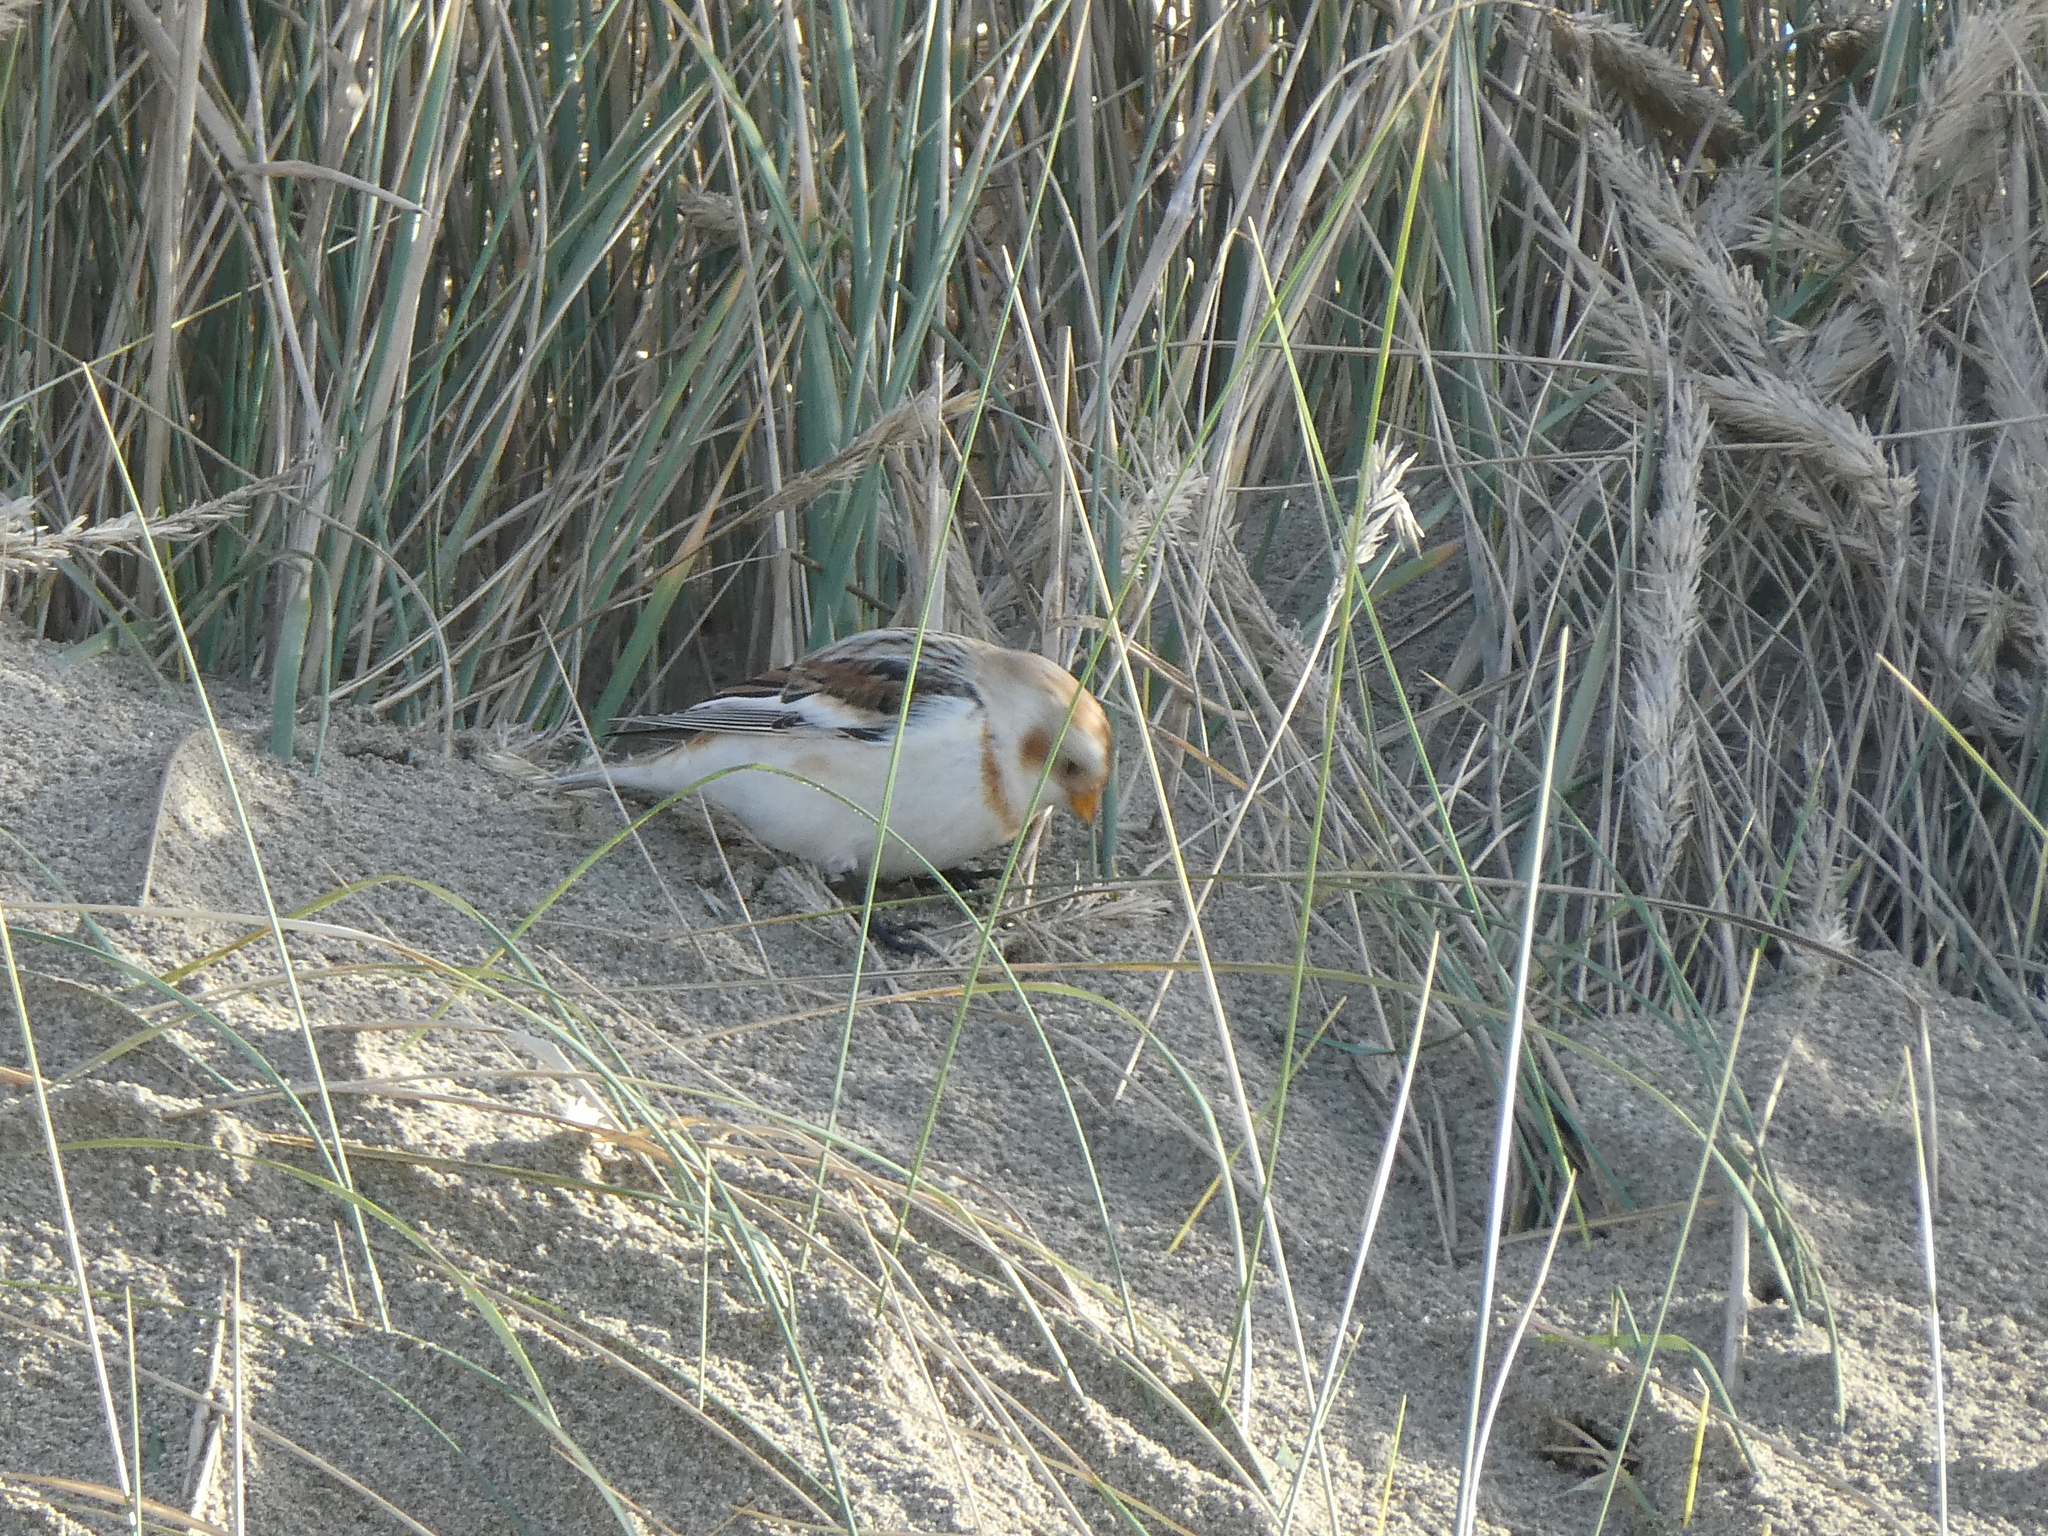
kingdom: Animalia
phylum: Chordata
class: Aves
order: Passeriformes
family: Calcariidae
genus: Plectrophenax
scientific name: Plectrophenax nivalis
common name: Snow bunting
